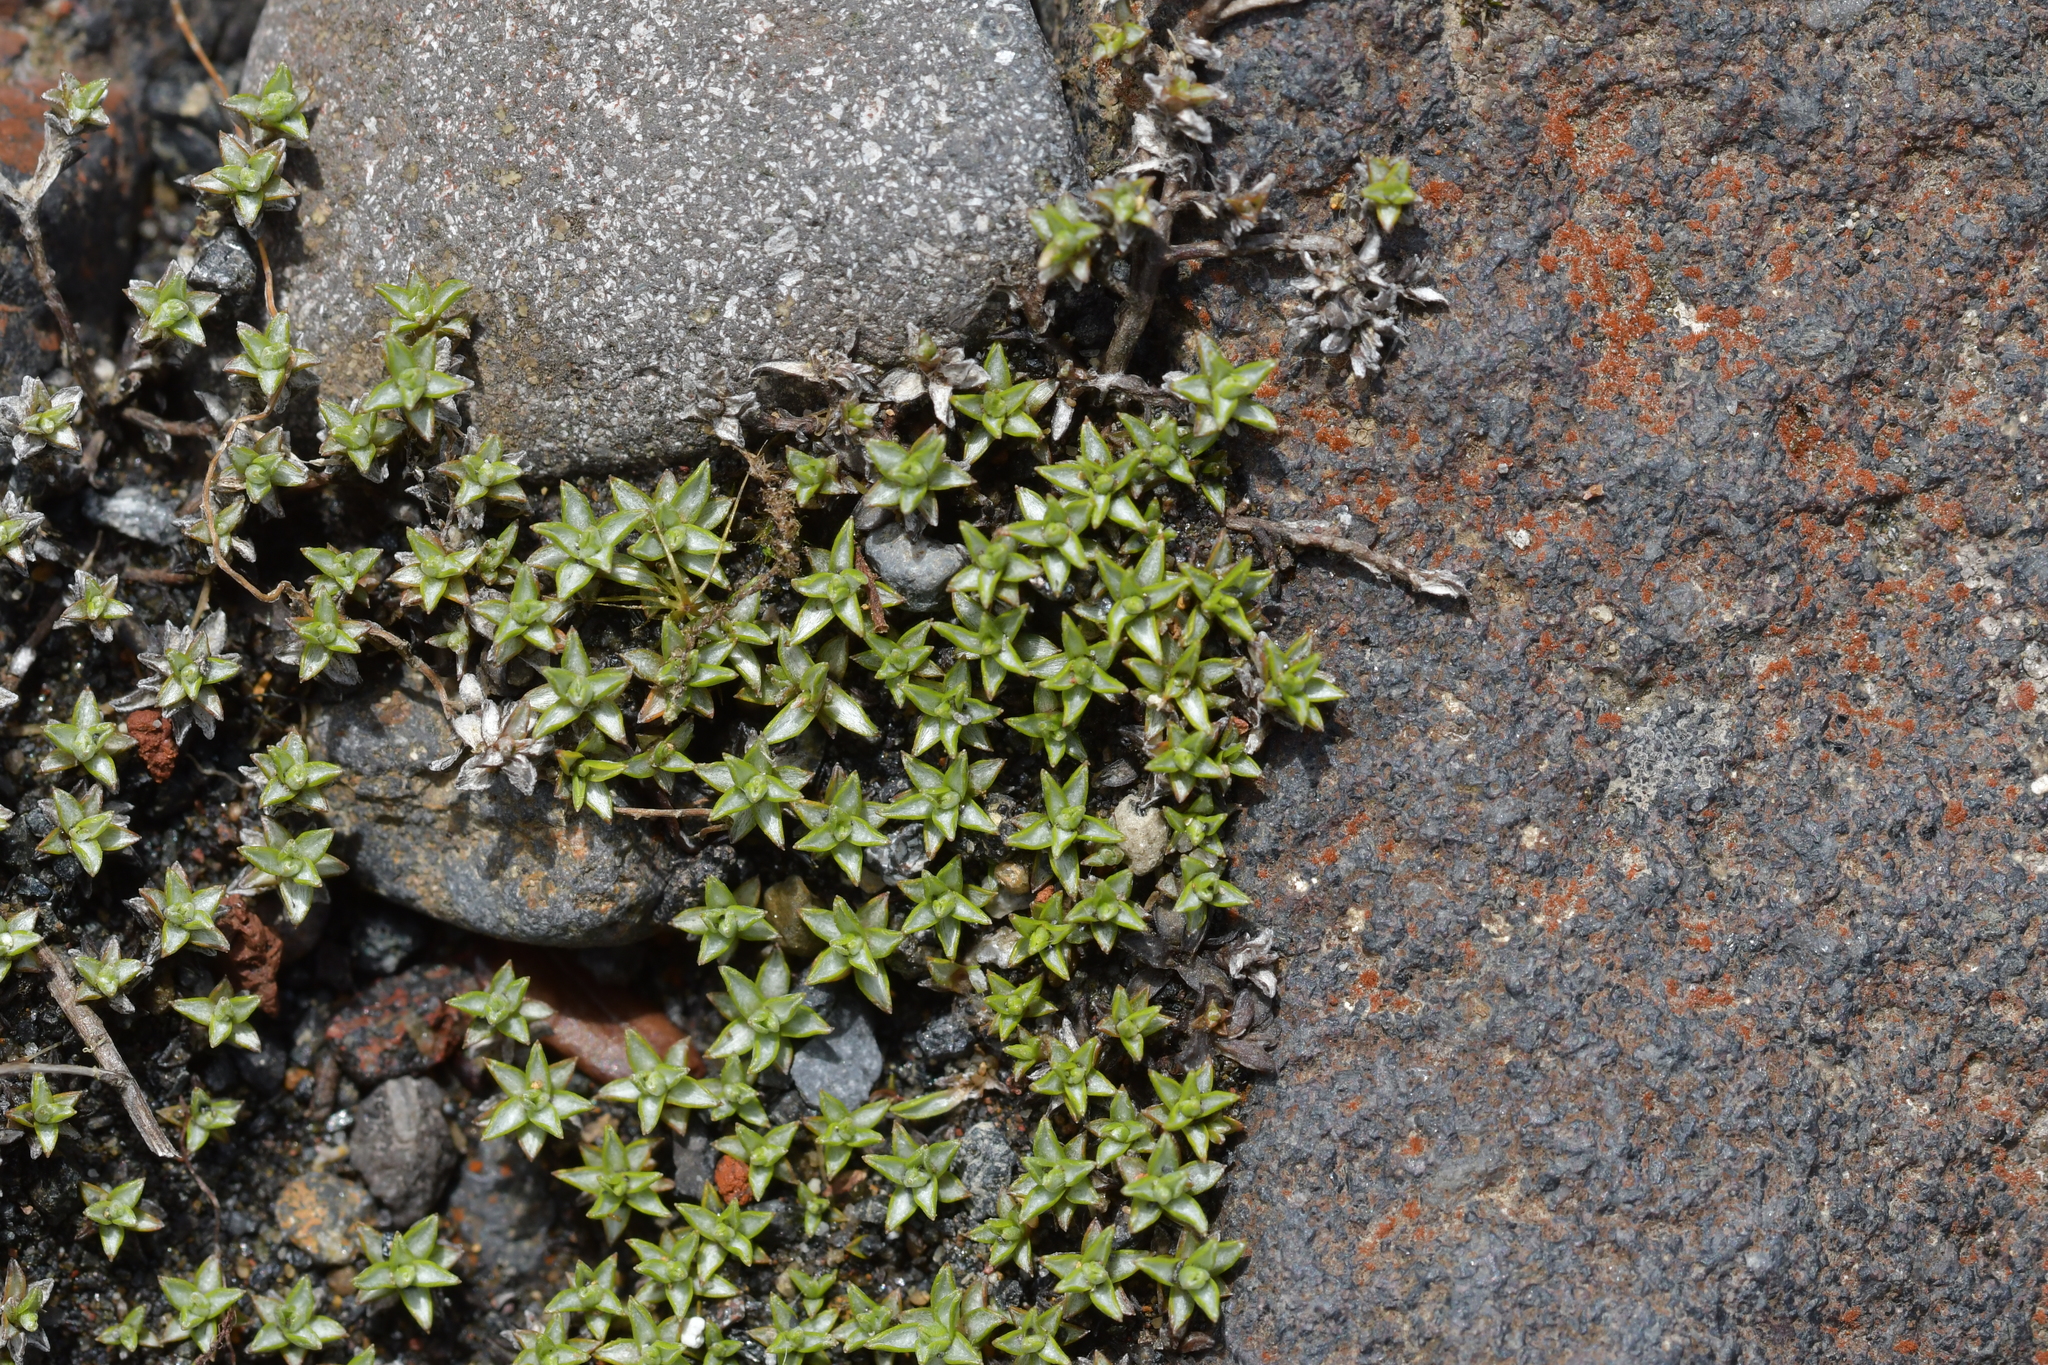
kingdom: Plantae
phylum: Tracheophyta
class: Magnoliopsida
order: Asterales
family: Asteraceae
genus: Raoulia
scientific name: Raoulia tenuicaulis
